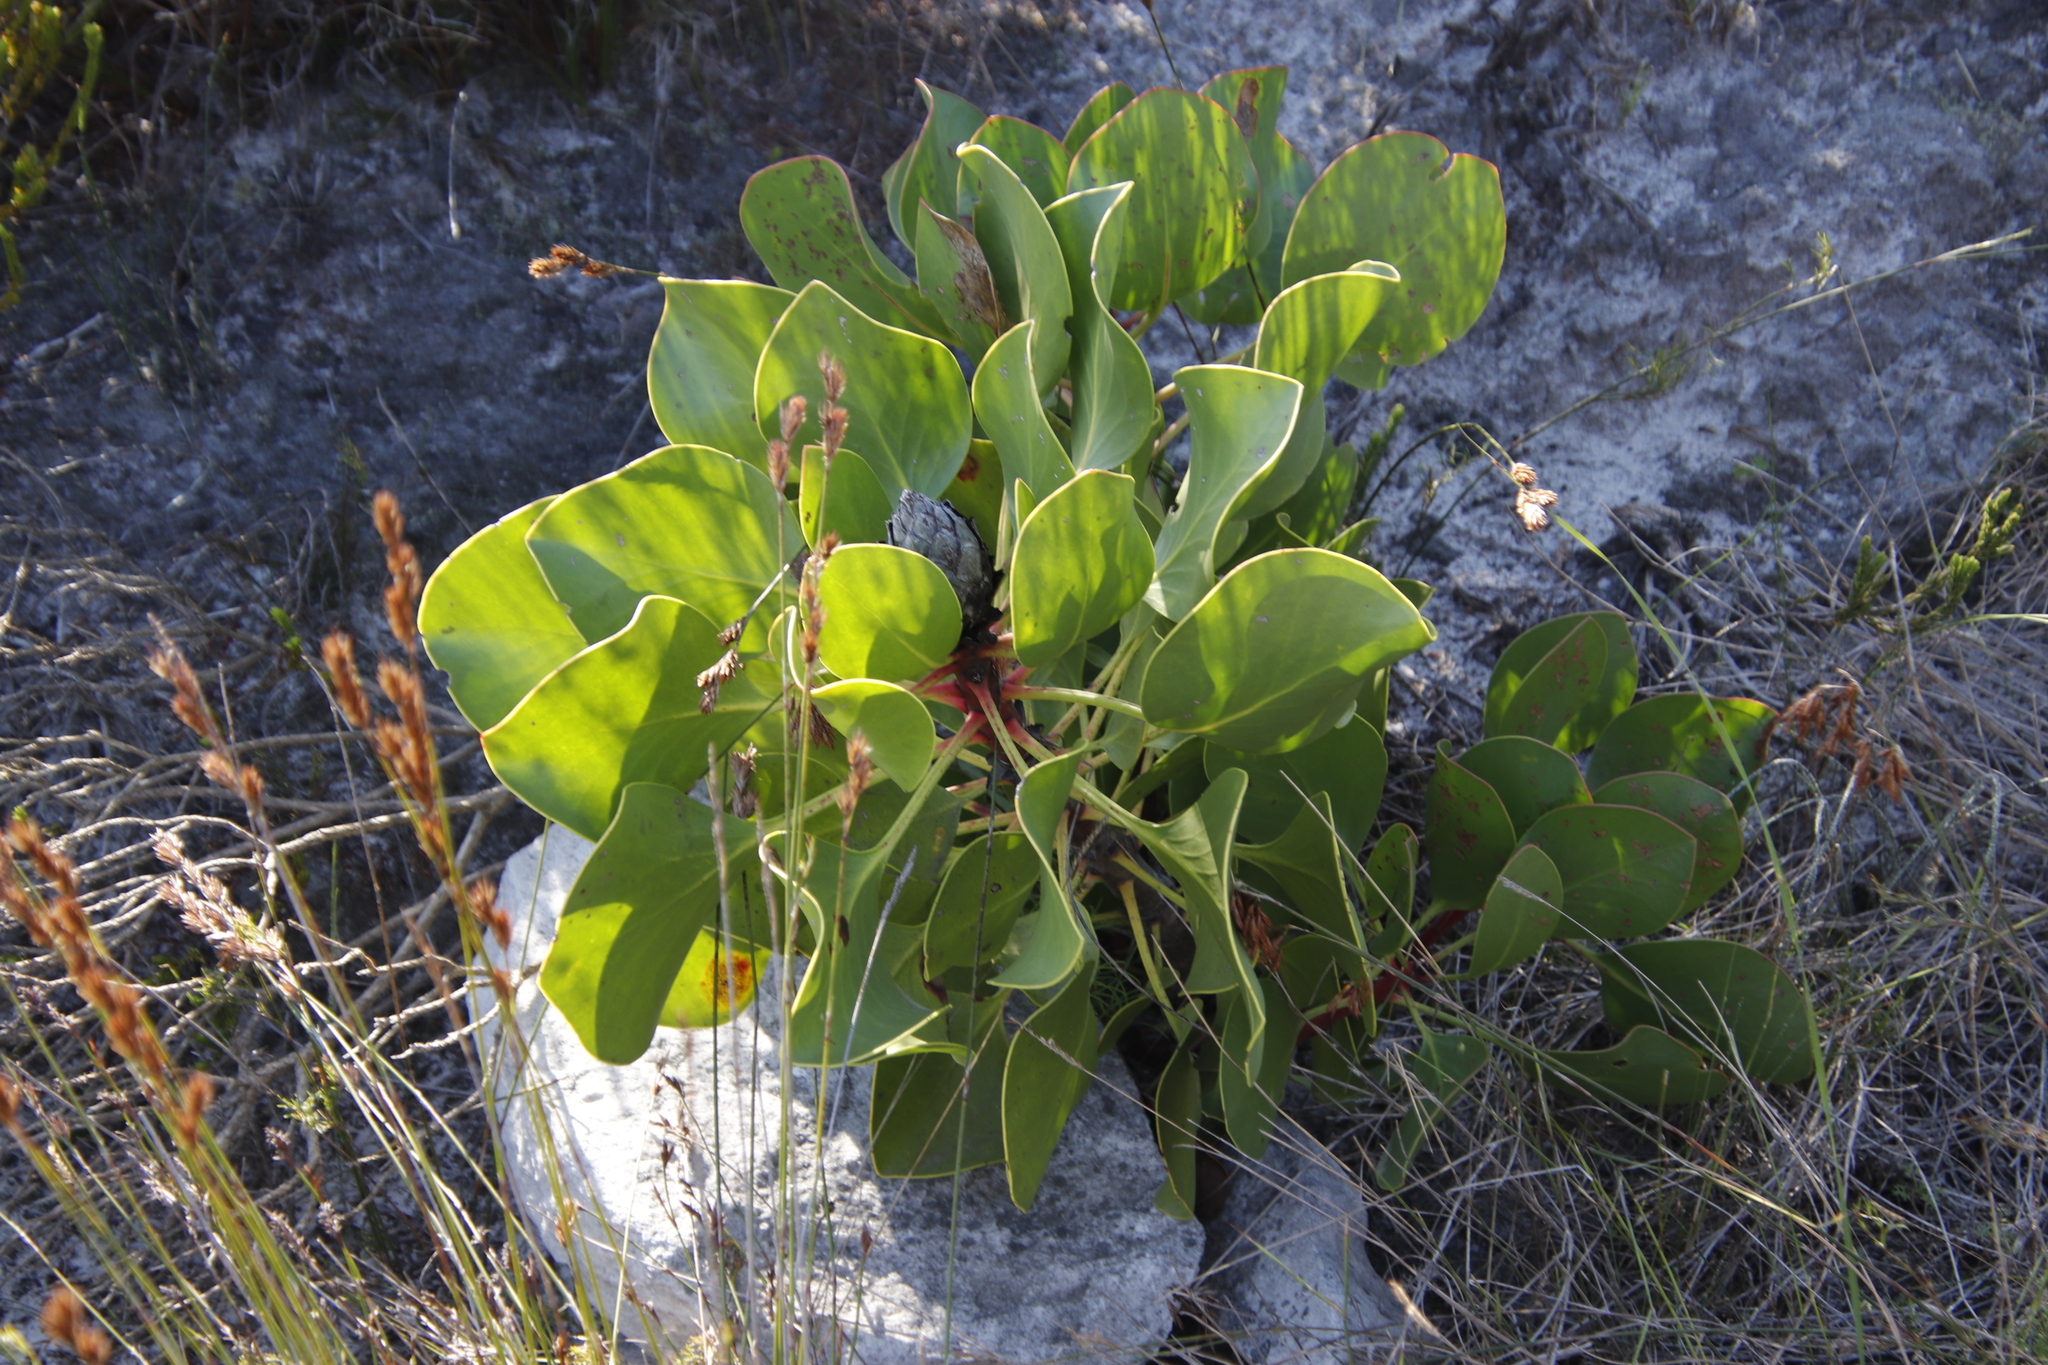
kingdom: Plantae
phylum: Tracheophyta
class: Magnoliopsida
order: Proteales
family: Proteaceae
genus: Protea
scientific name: Protea cynaroides
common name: King protea
